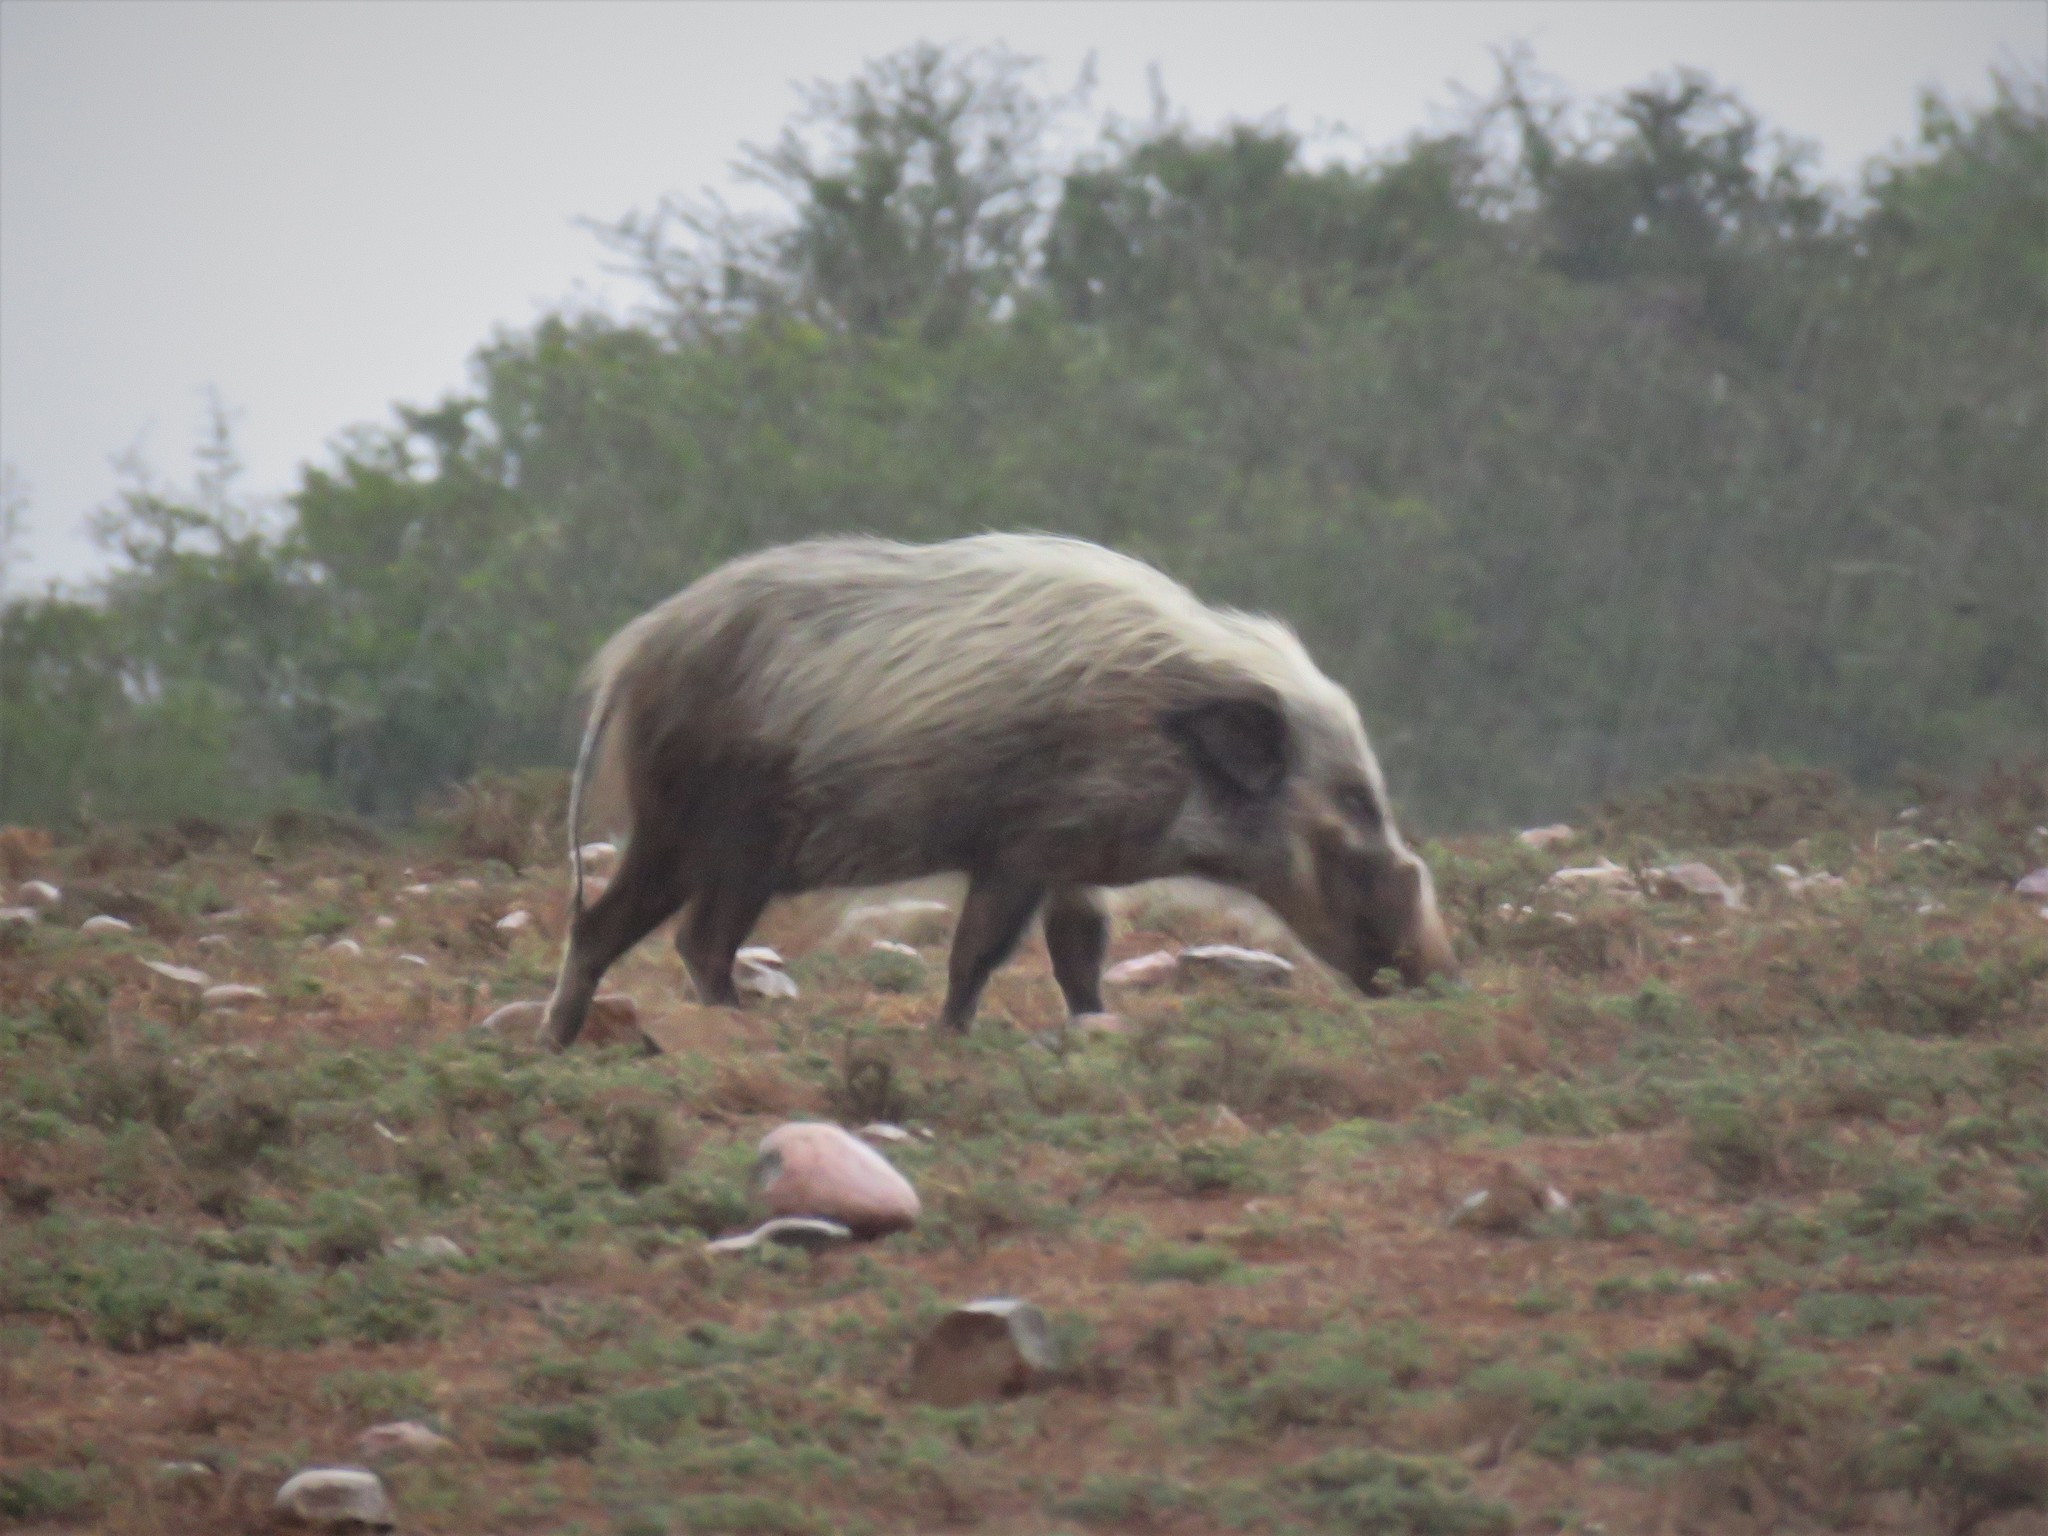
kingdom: Animalia
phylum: Chordata
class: Mammalia
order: Artiodactyla
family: Suidae
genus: Potamochoerus
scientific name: Potamochoerus larvatus
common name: Bushpig
